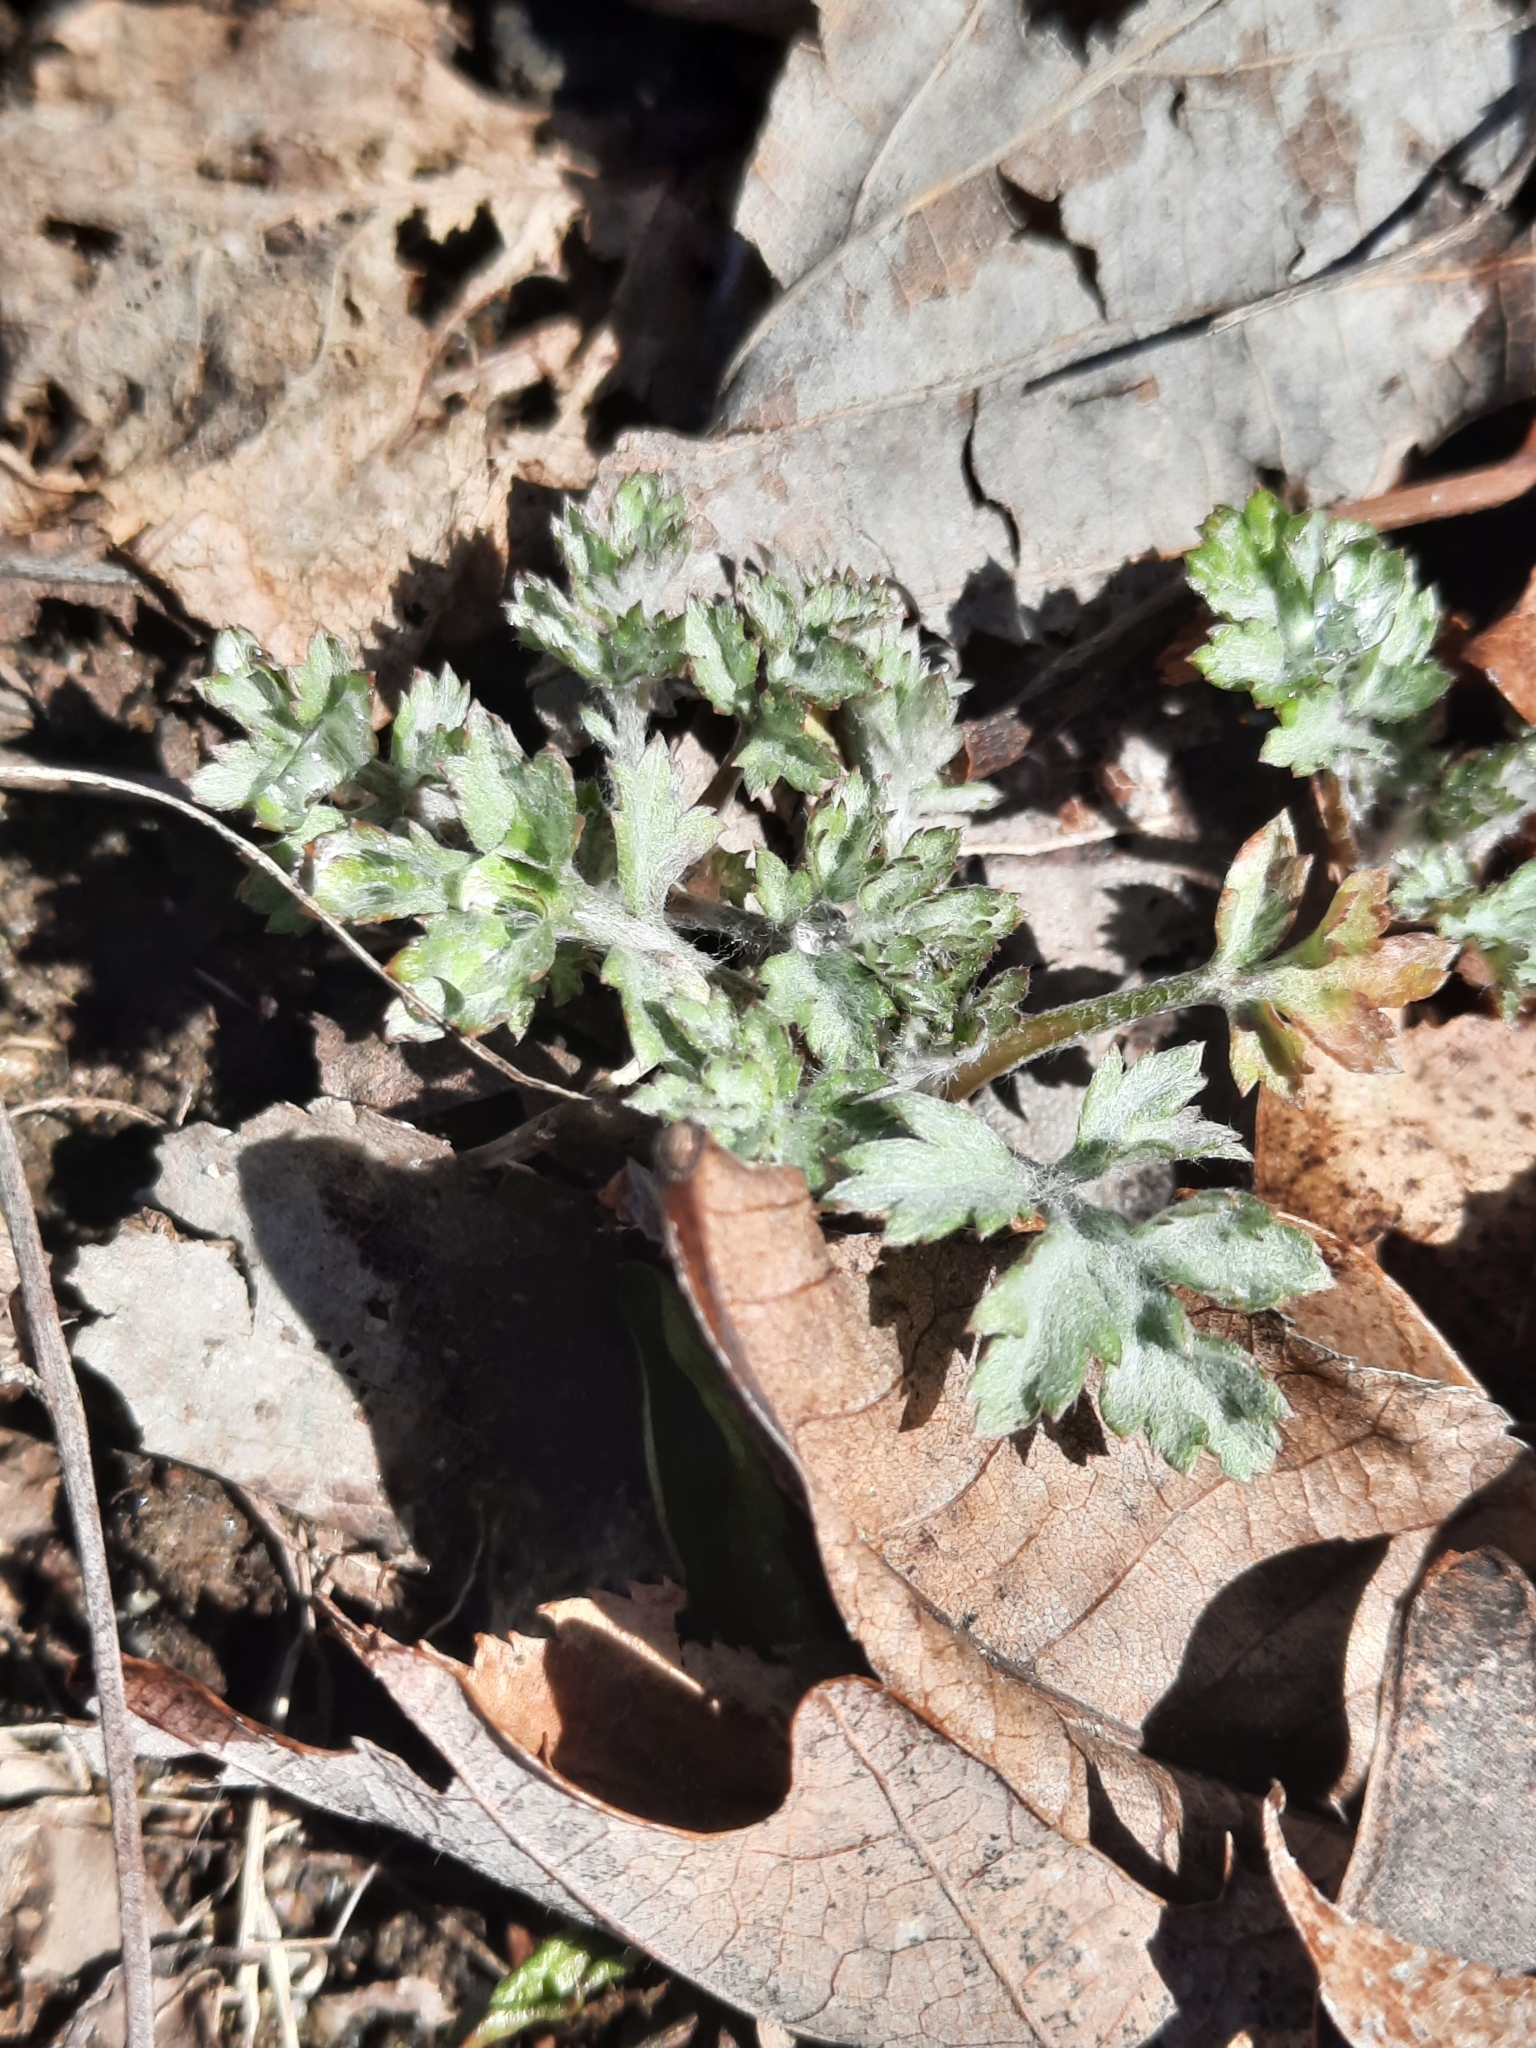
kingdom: Plantae
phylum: Tracheophyta
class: Magnoliopsida
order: Asterales
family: Asteraceae
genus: Artemisia
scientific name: Artemisia vulgaris
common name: Mugwort
